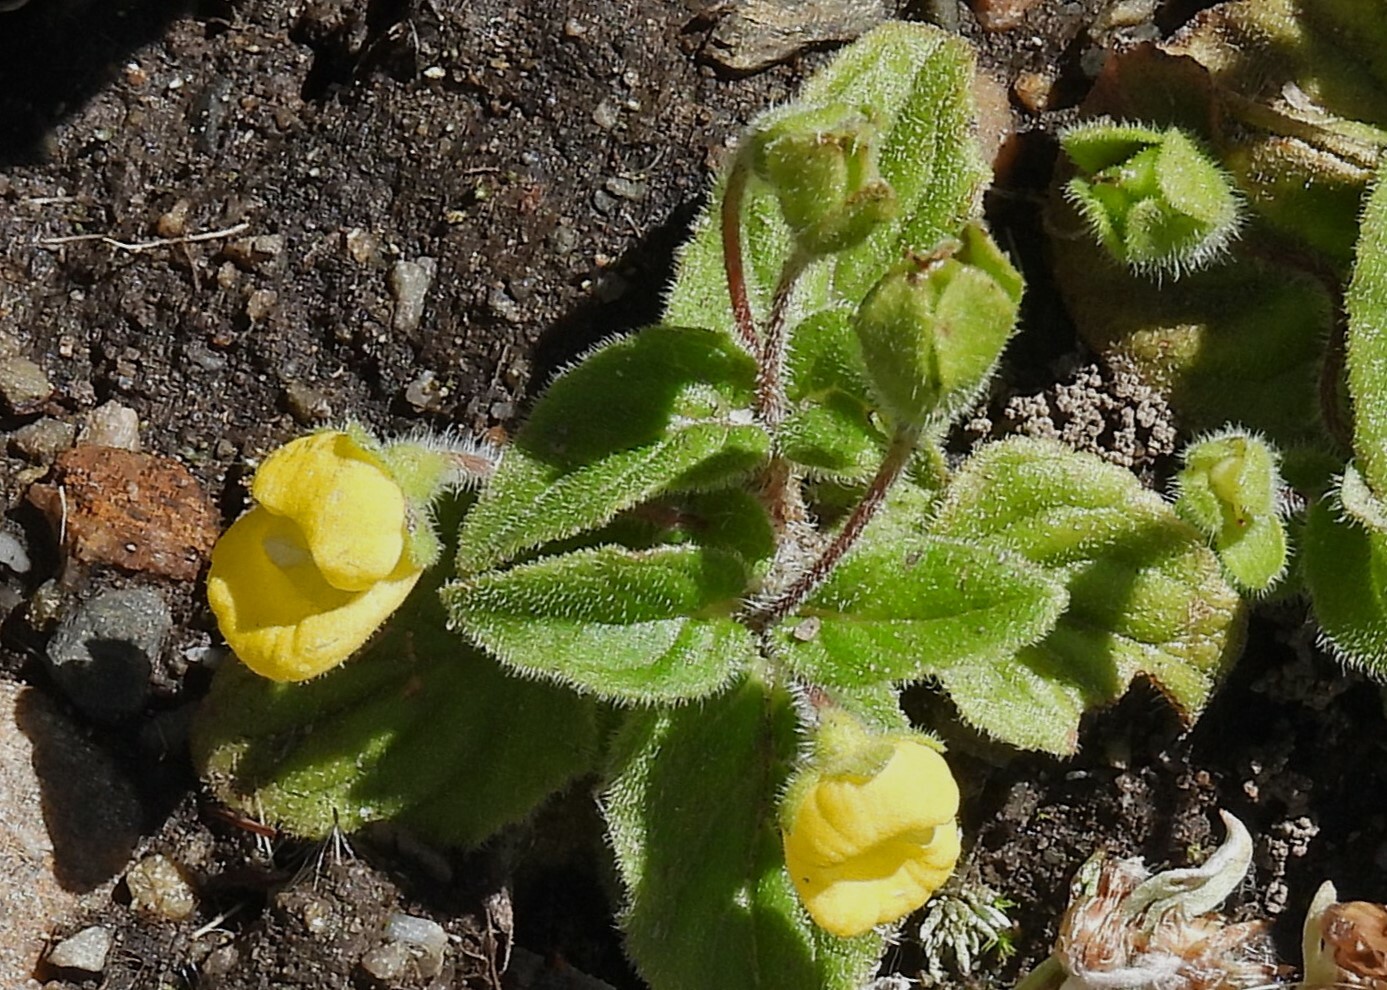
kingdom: Plantae
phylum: Tracheophyta
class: Magnoliopsida
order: Lamiales
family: Calceolariaceae
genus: Calceolaria
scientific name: Calceolaria tucumana
